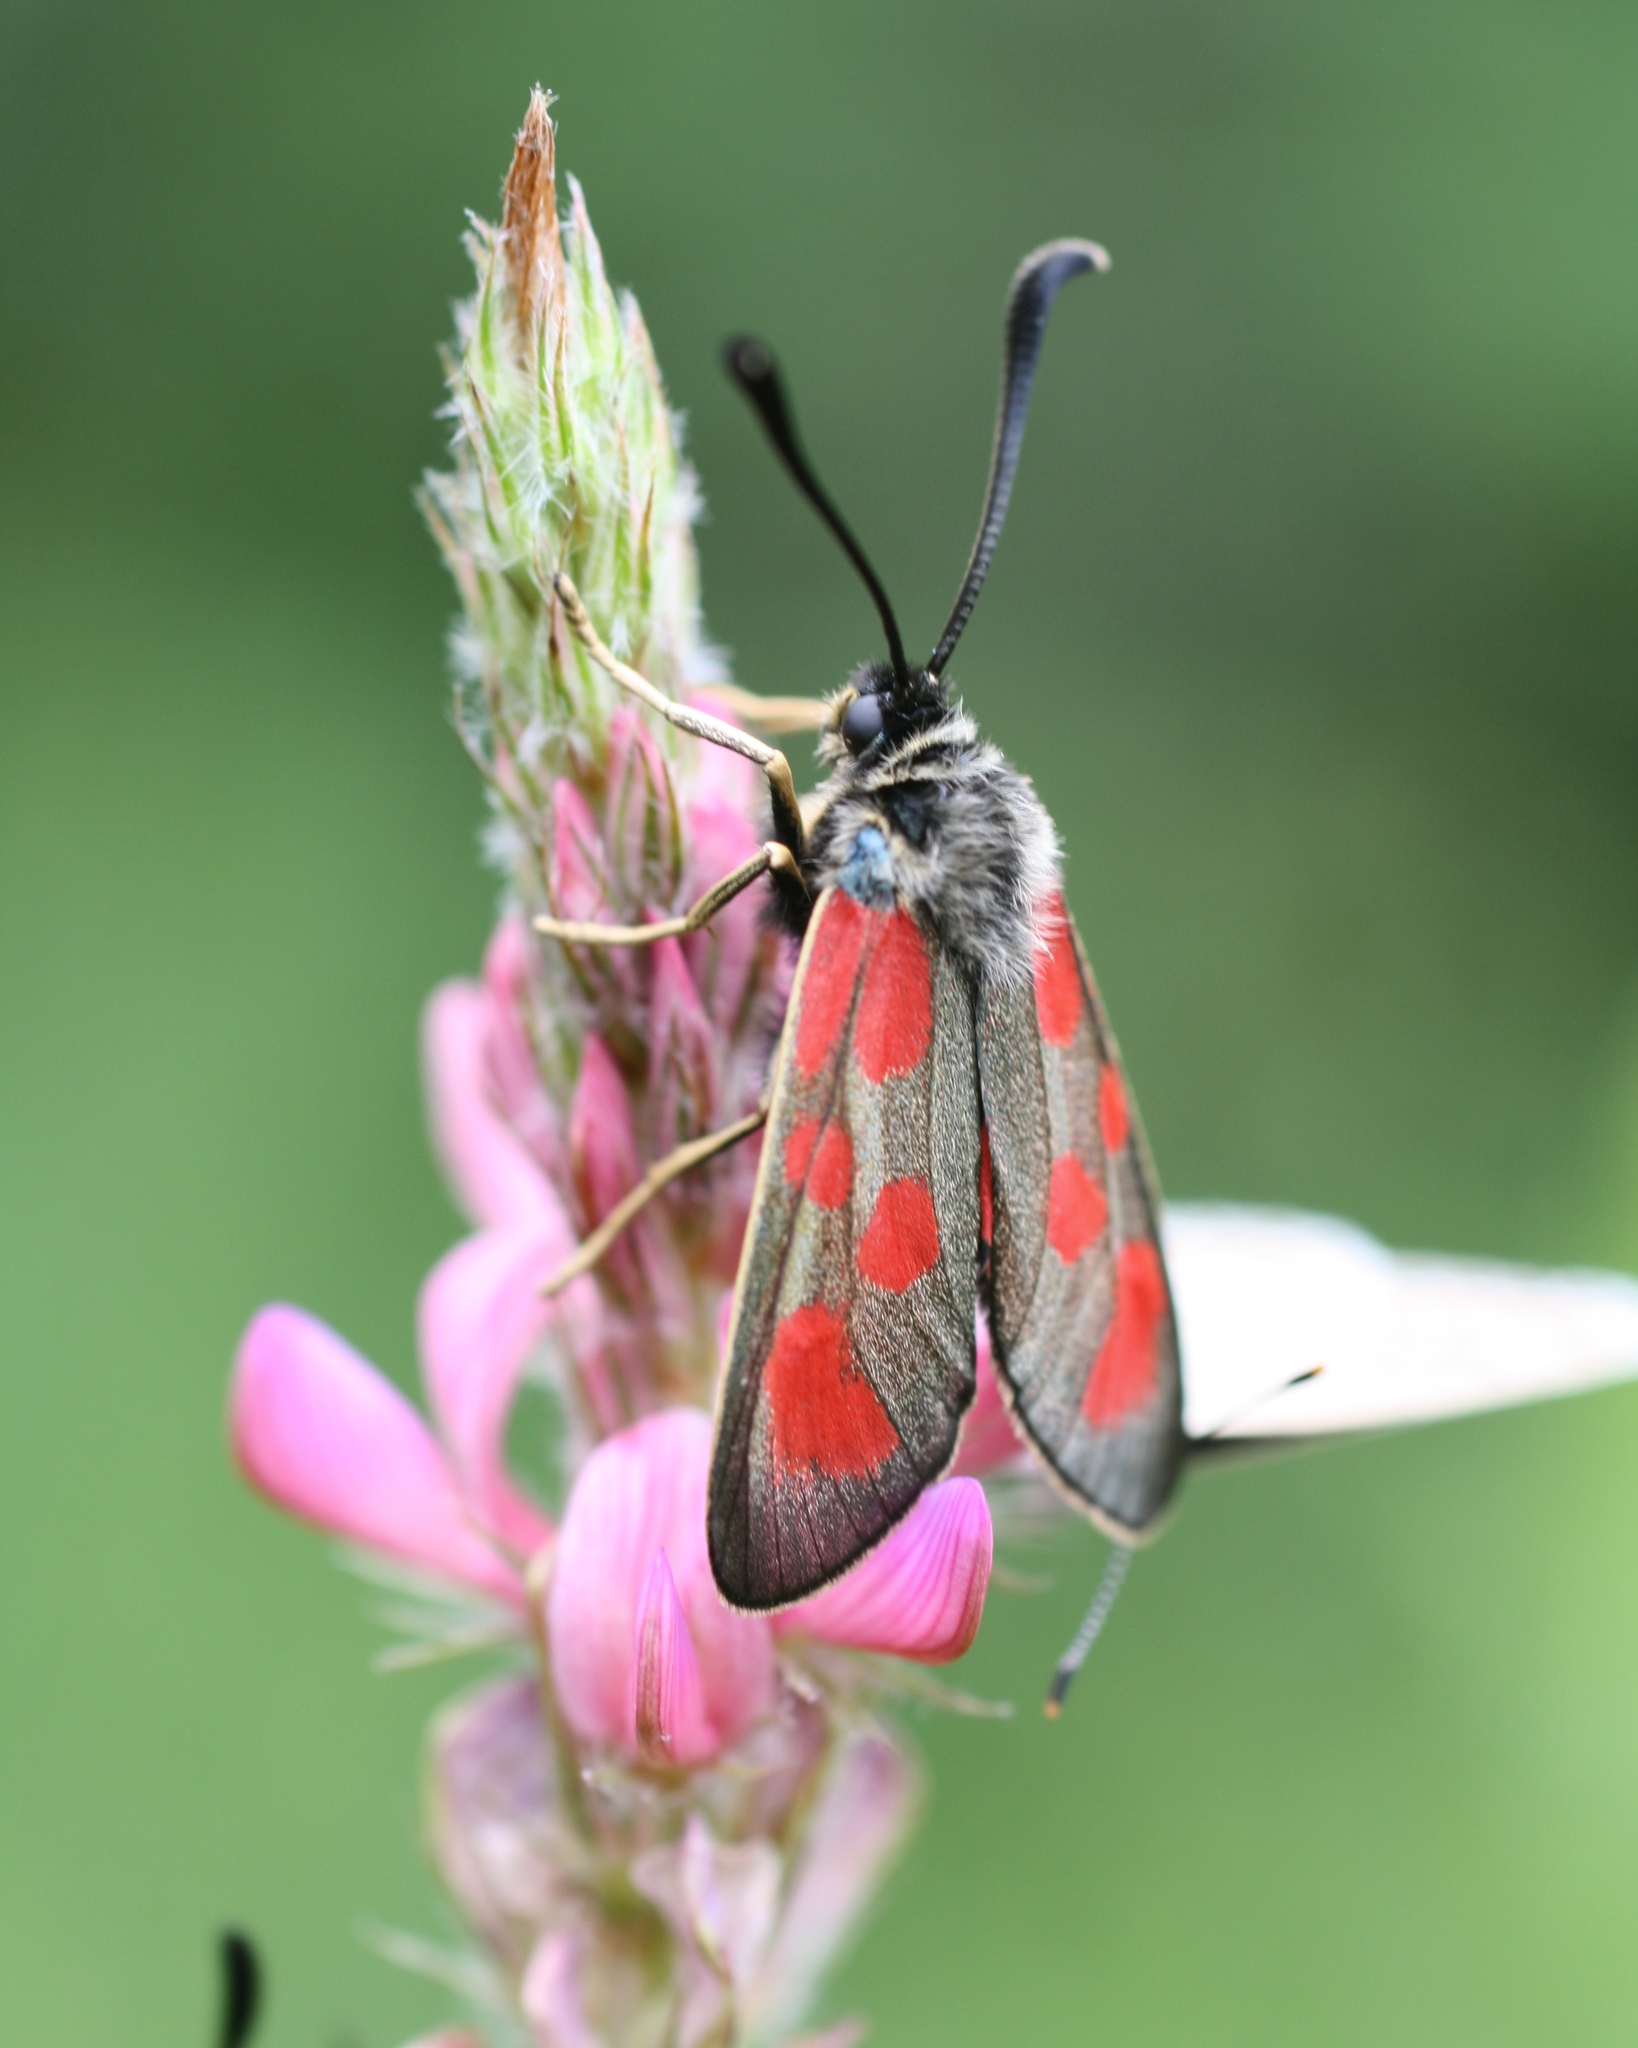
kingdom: Animalia
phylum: Arthropoda
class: Insecta
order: Lepidoptera
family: Zygaenidae
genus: Zygaena
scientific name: Zygaena loti
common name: Slender scotch burnet
